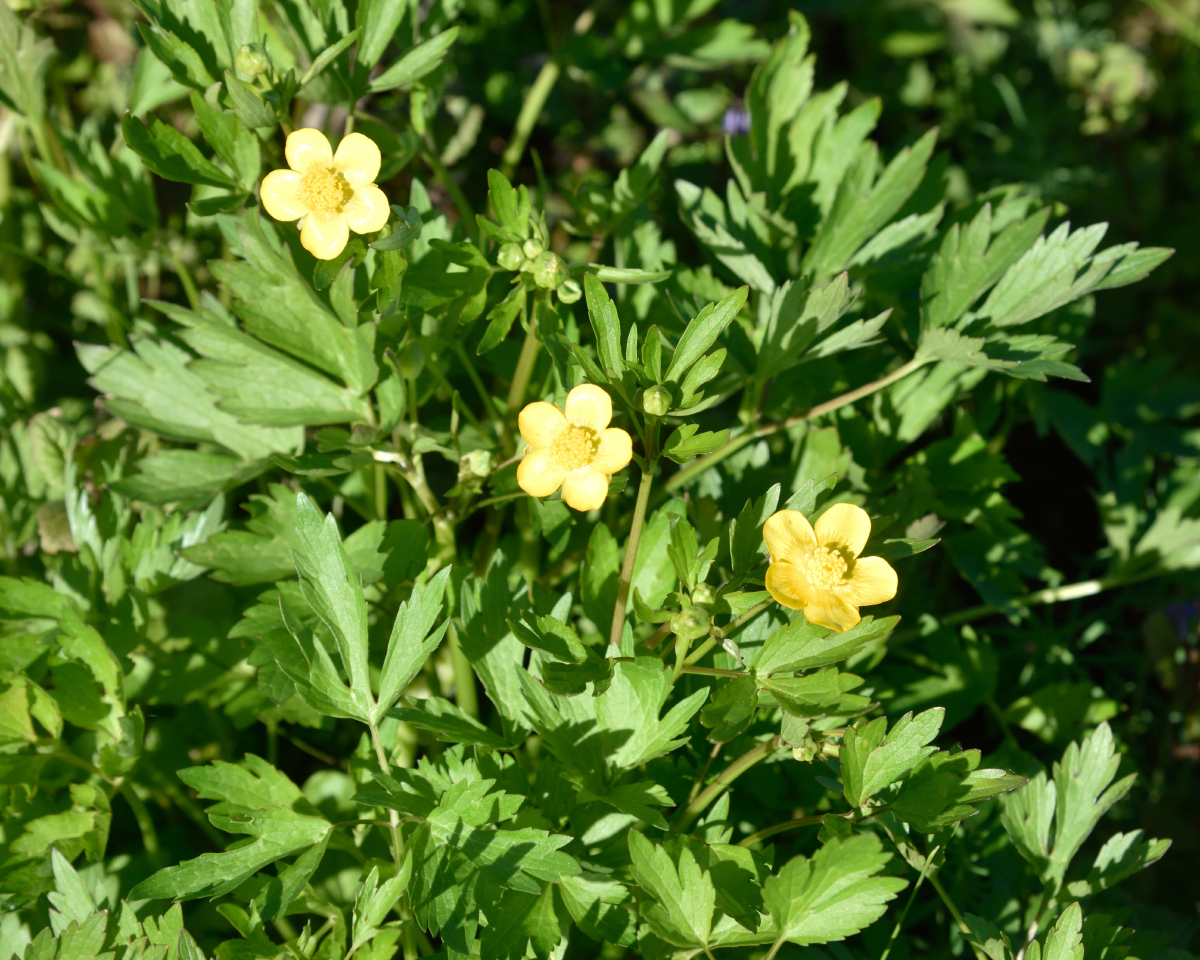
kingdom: Plantae
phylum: Tracheophyta
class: Magnoliopsida
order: Ranunculales
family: Ranunculaceae
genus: Ranunculus
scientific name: Ranunculus repens
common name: Creeping buttercup
